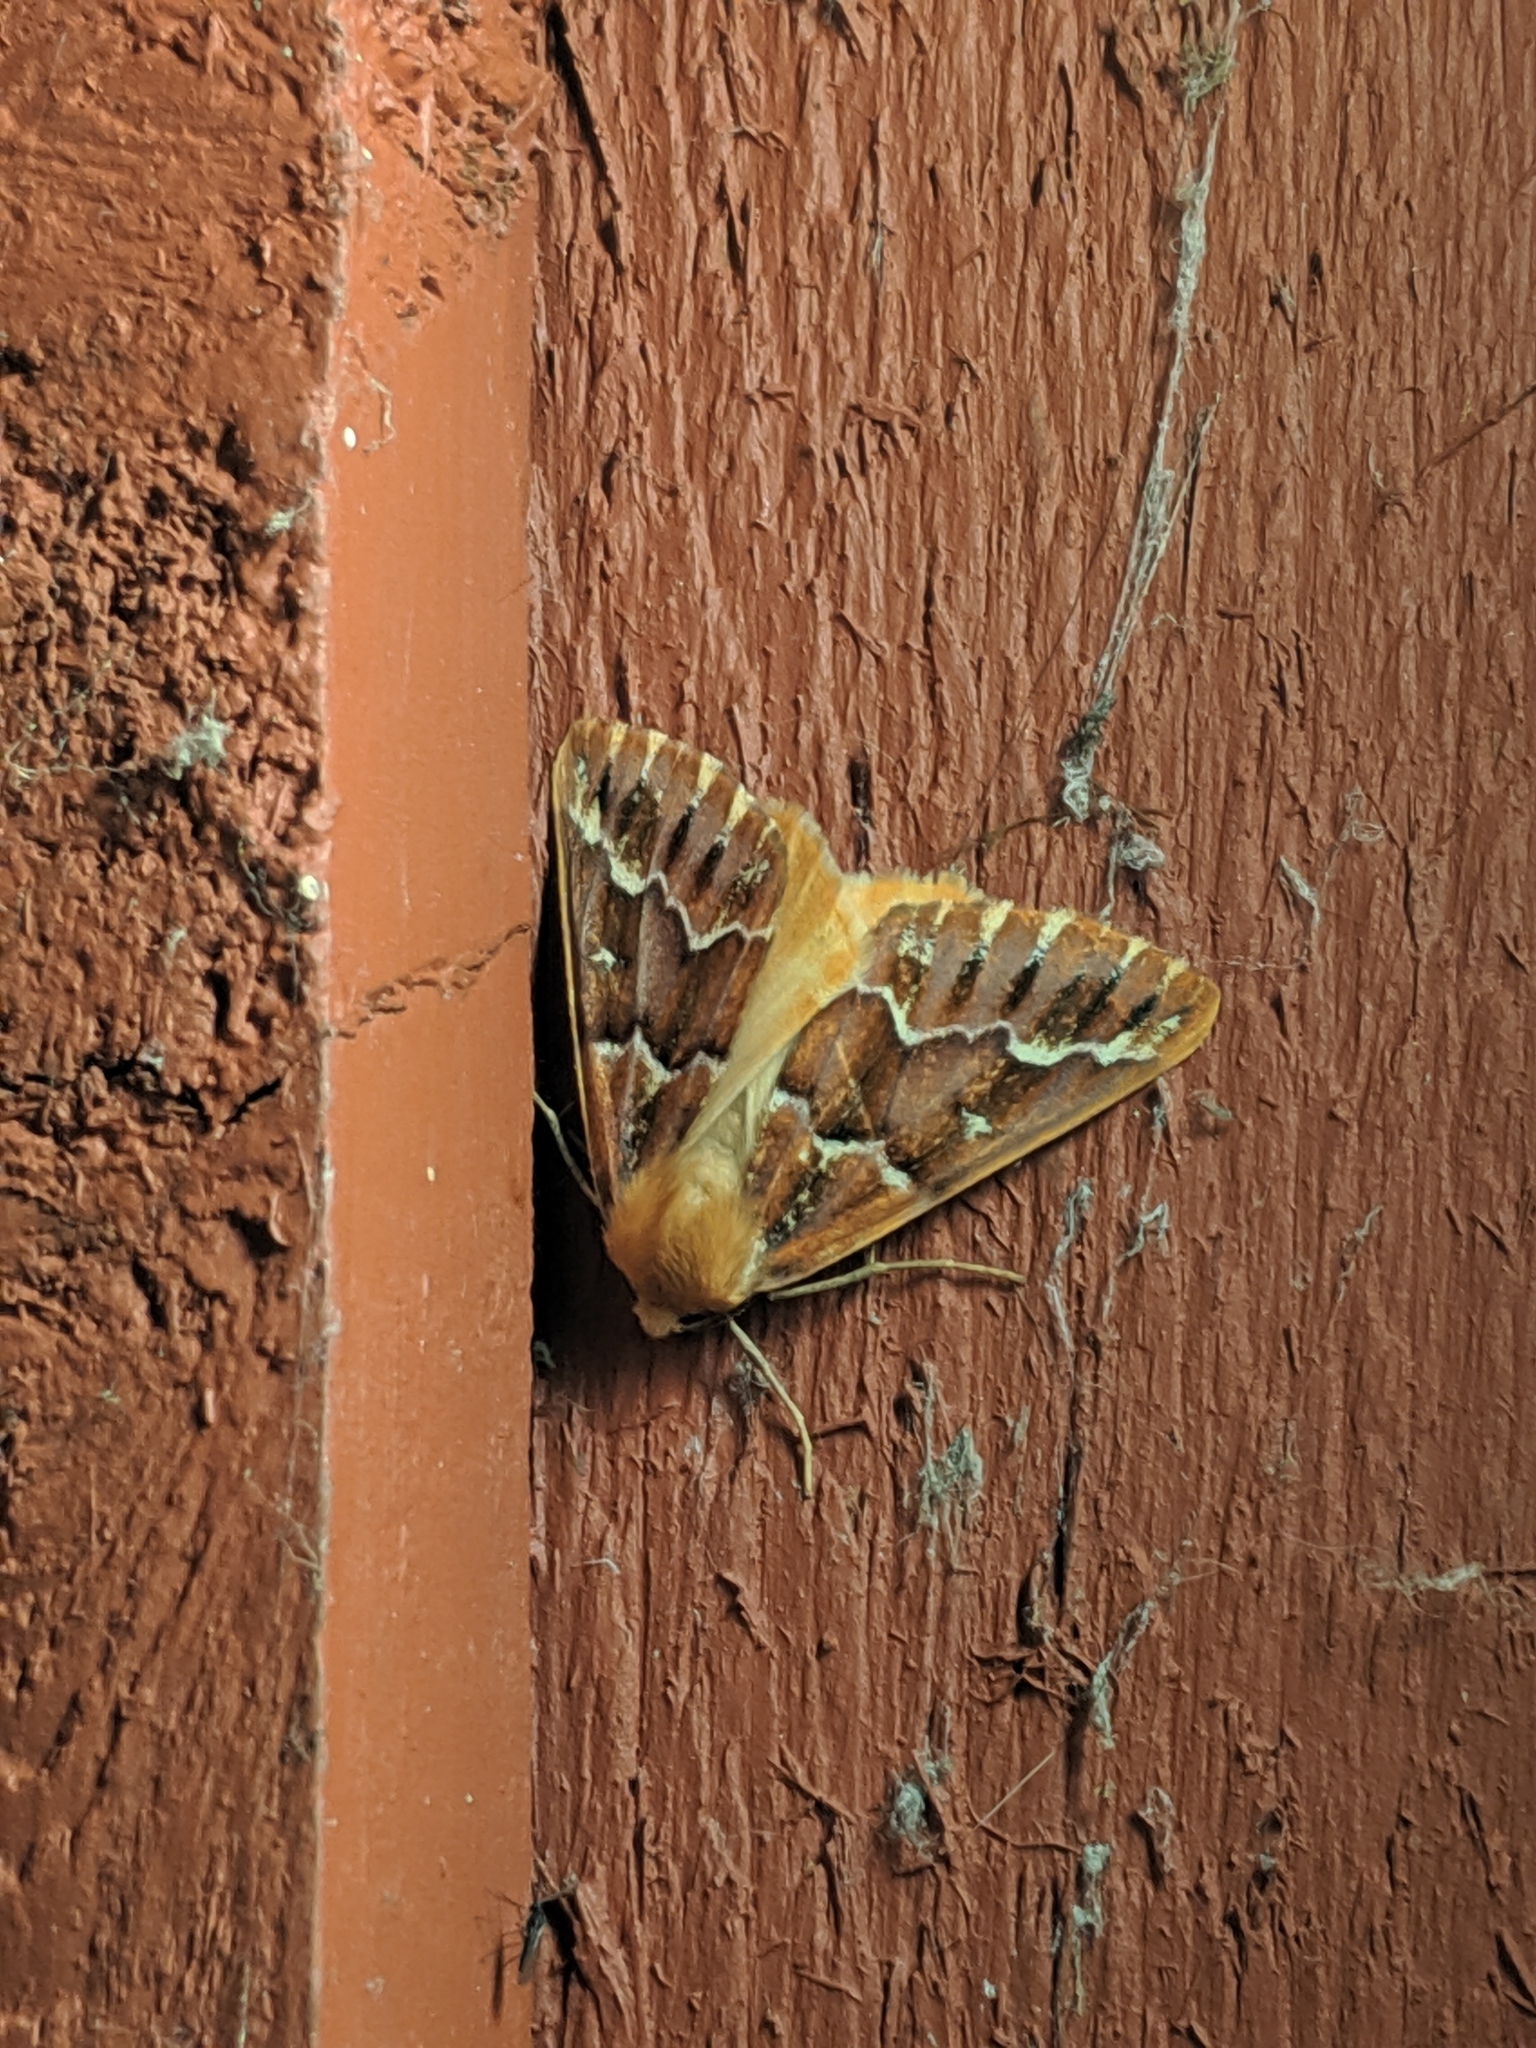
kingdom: Animalia
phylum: Arthropoda
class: Insecta
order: Lepidoptera
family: Geometridae
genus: Caripeta
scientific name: Caripeta aequaliaria
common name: Red girdle moth
